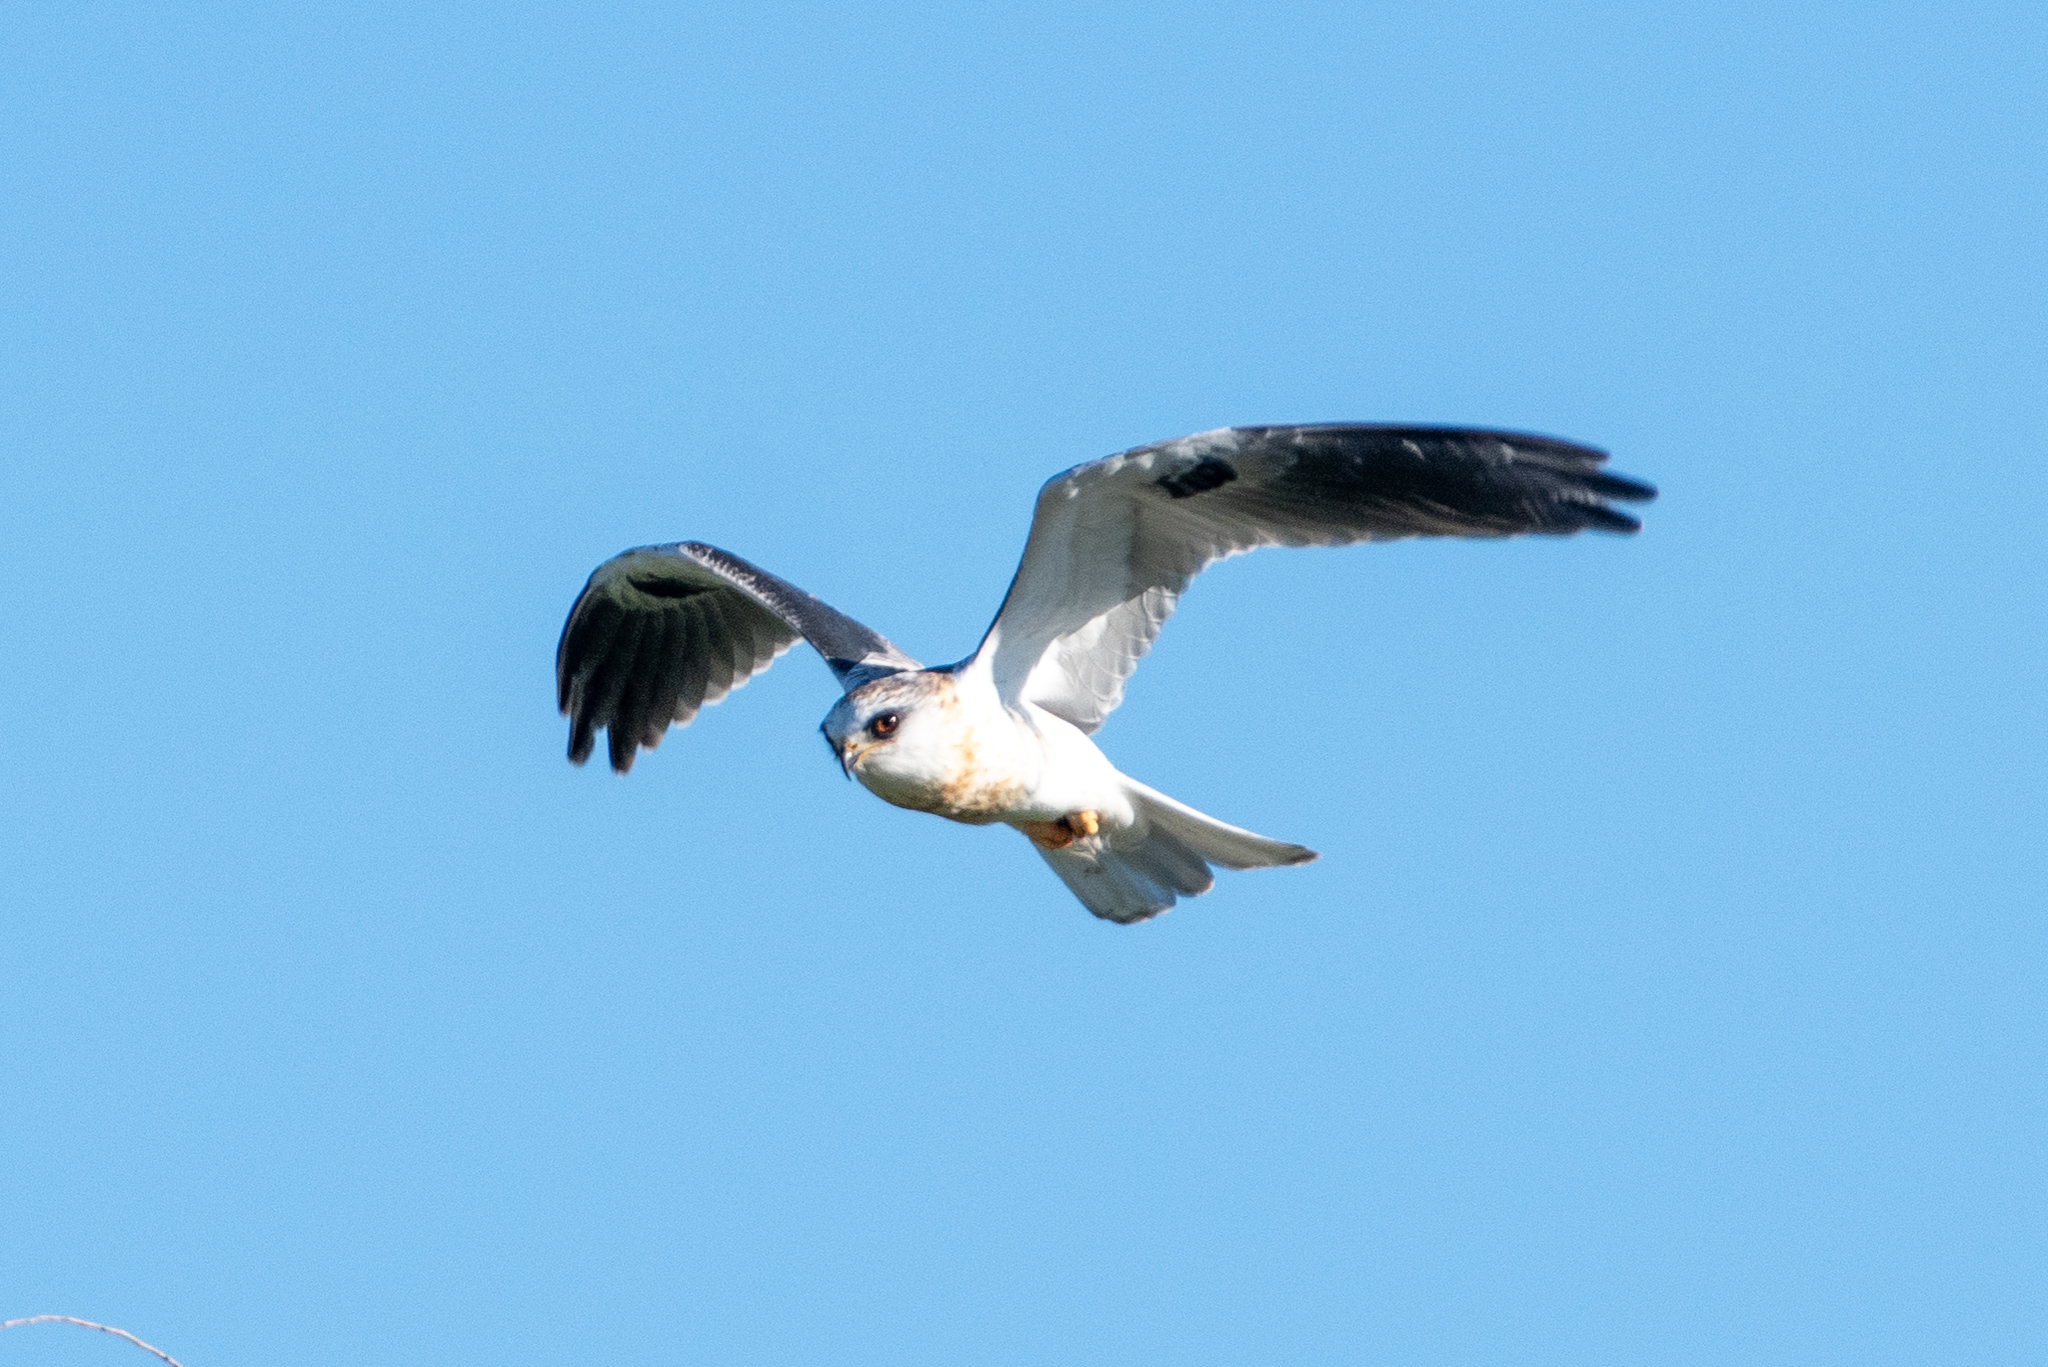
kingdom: Animalia
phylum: Chordata
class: Aves
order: Accipitriformes
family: Accipitridae
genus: Elanus
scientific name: Elanus leucurus
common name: White-tailed kite
